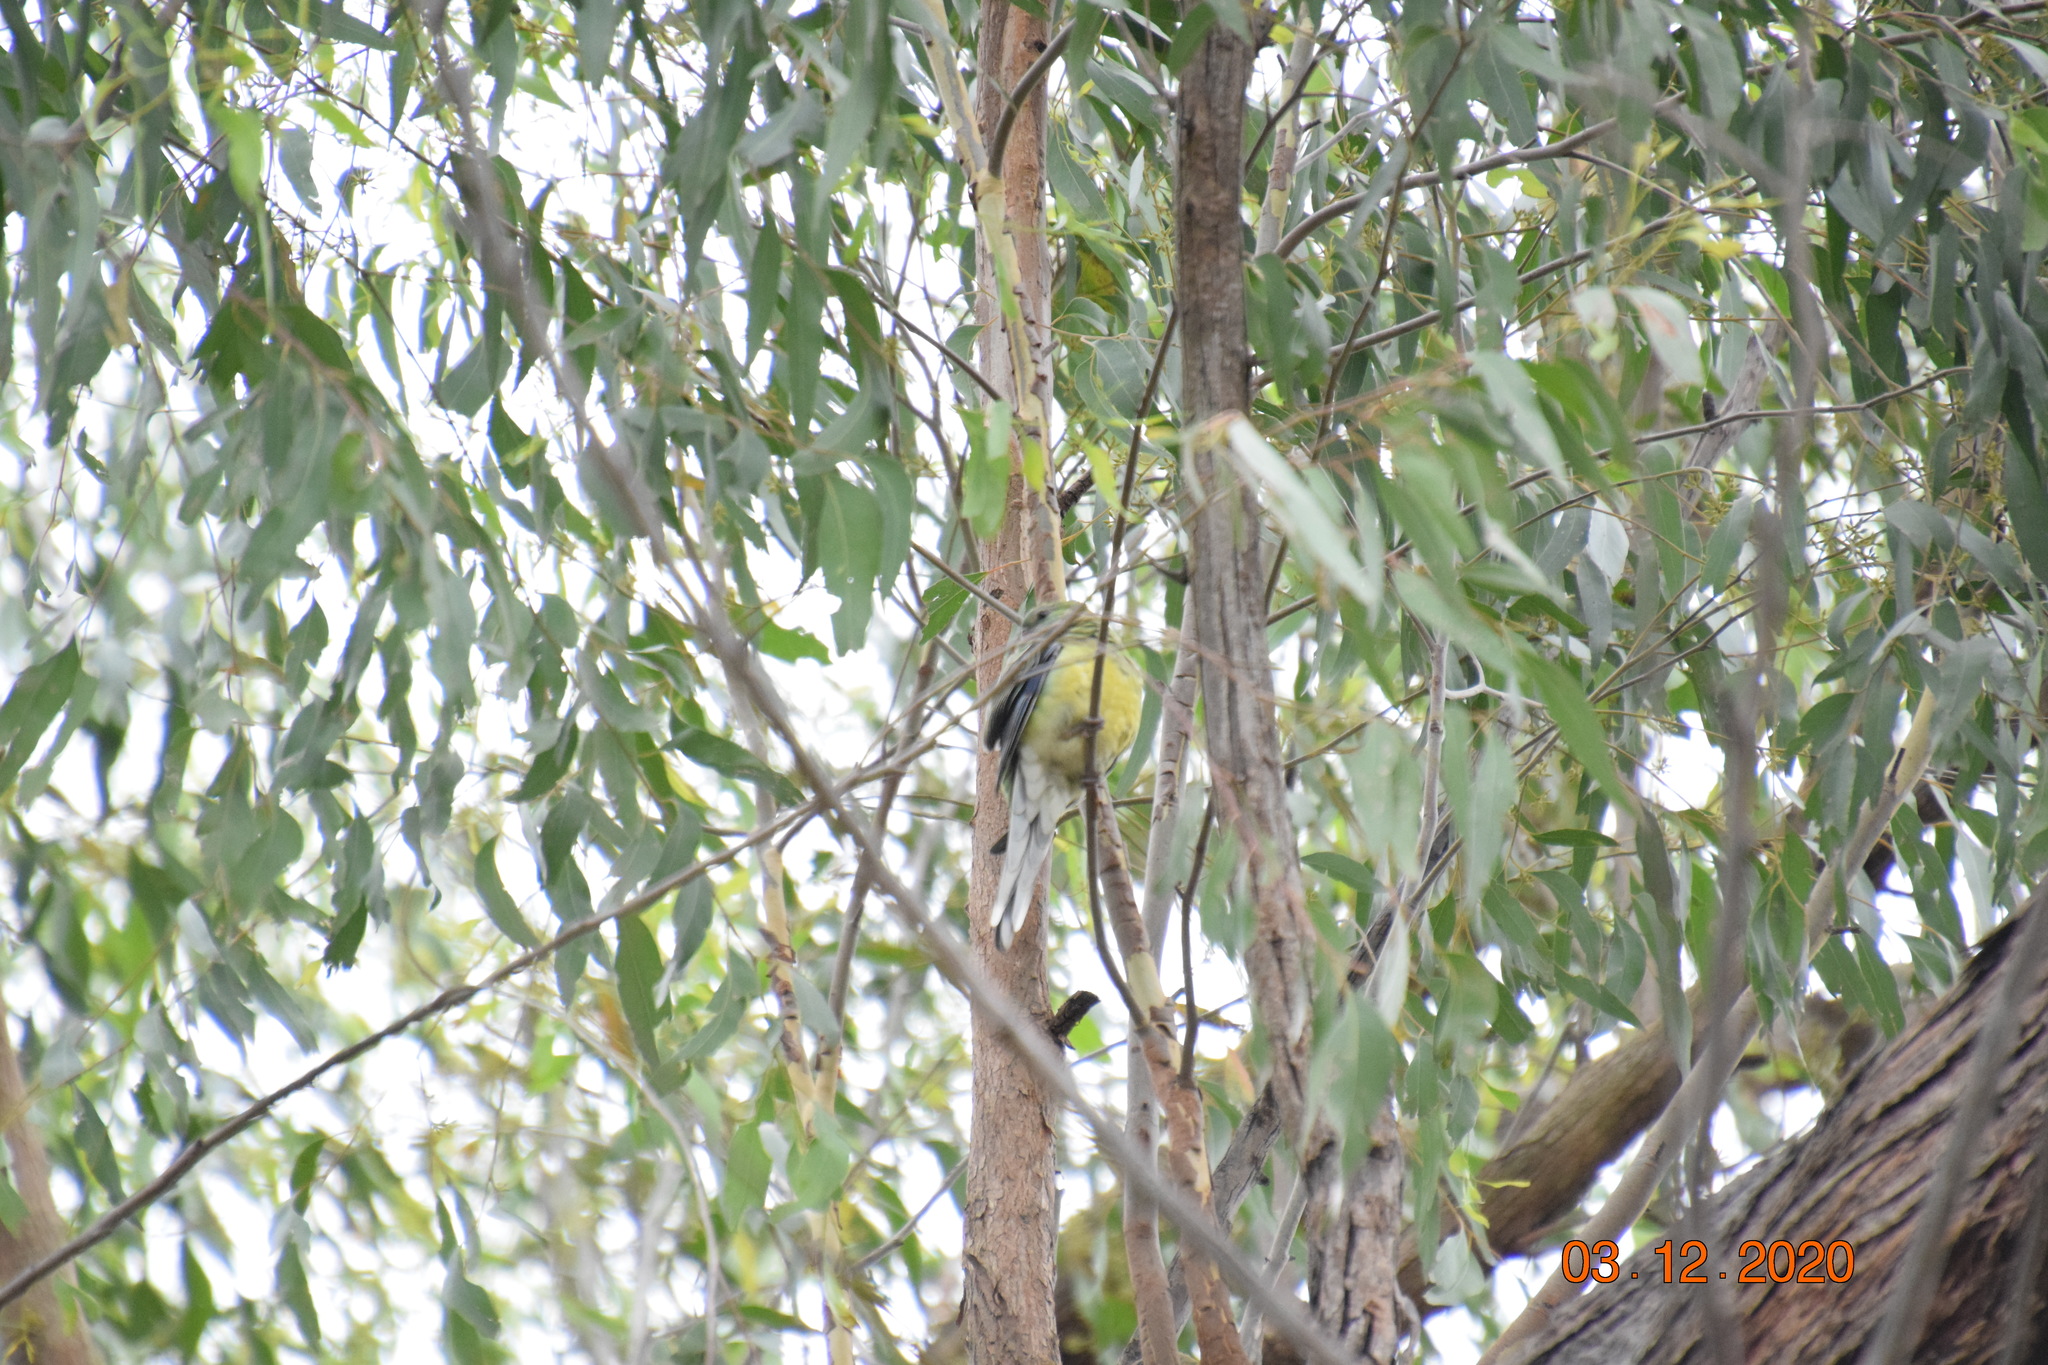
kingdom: Animalia
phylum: Chordata
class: Aves
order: Psittaciformes
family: Psittacidae
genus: Psephotus
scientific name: Psephotus haematonotus
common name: Red-rumped parrot
